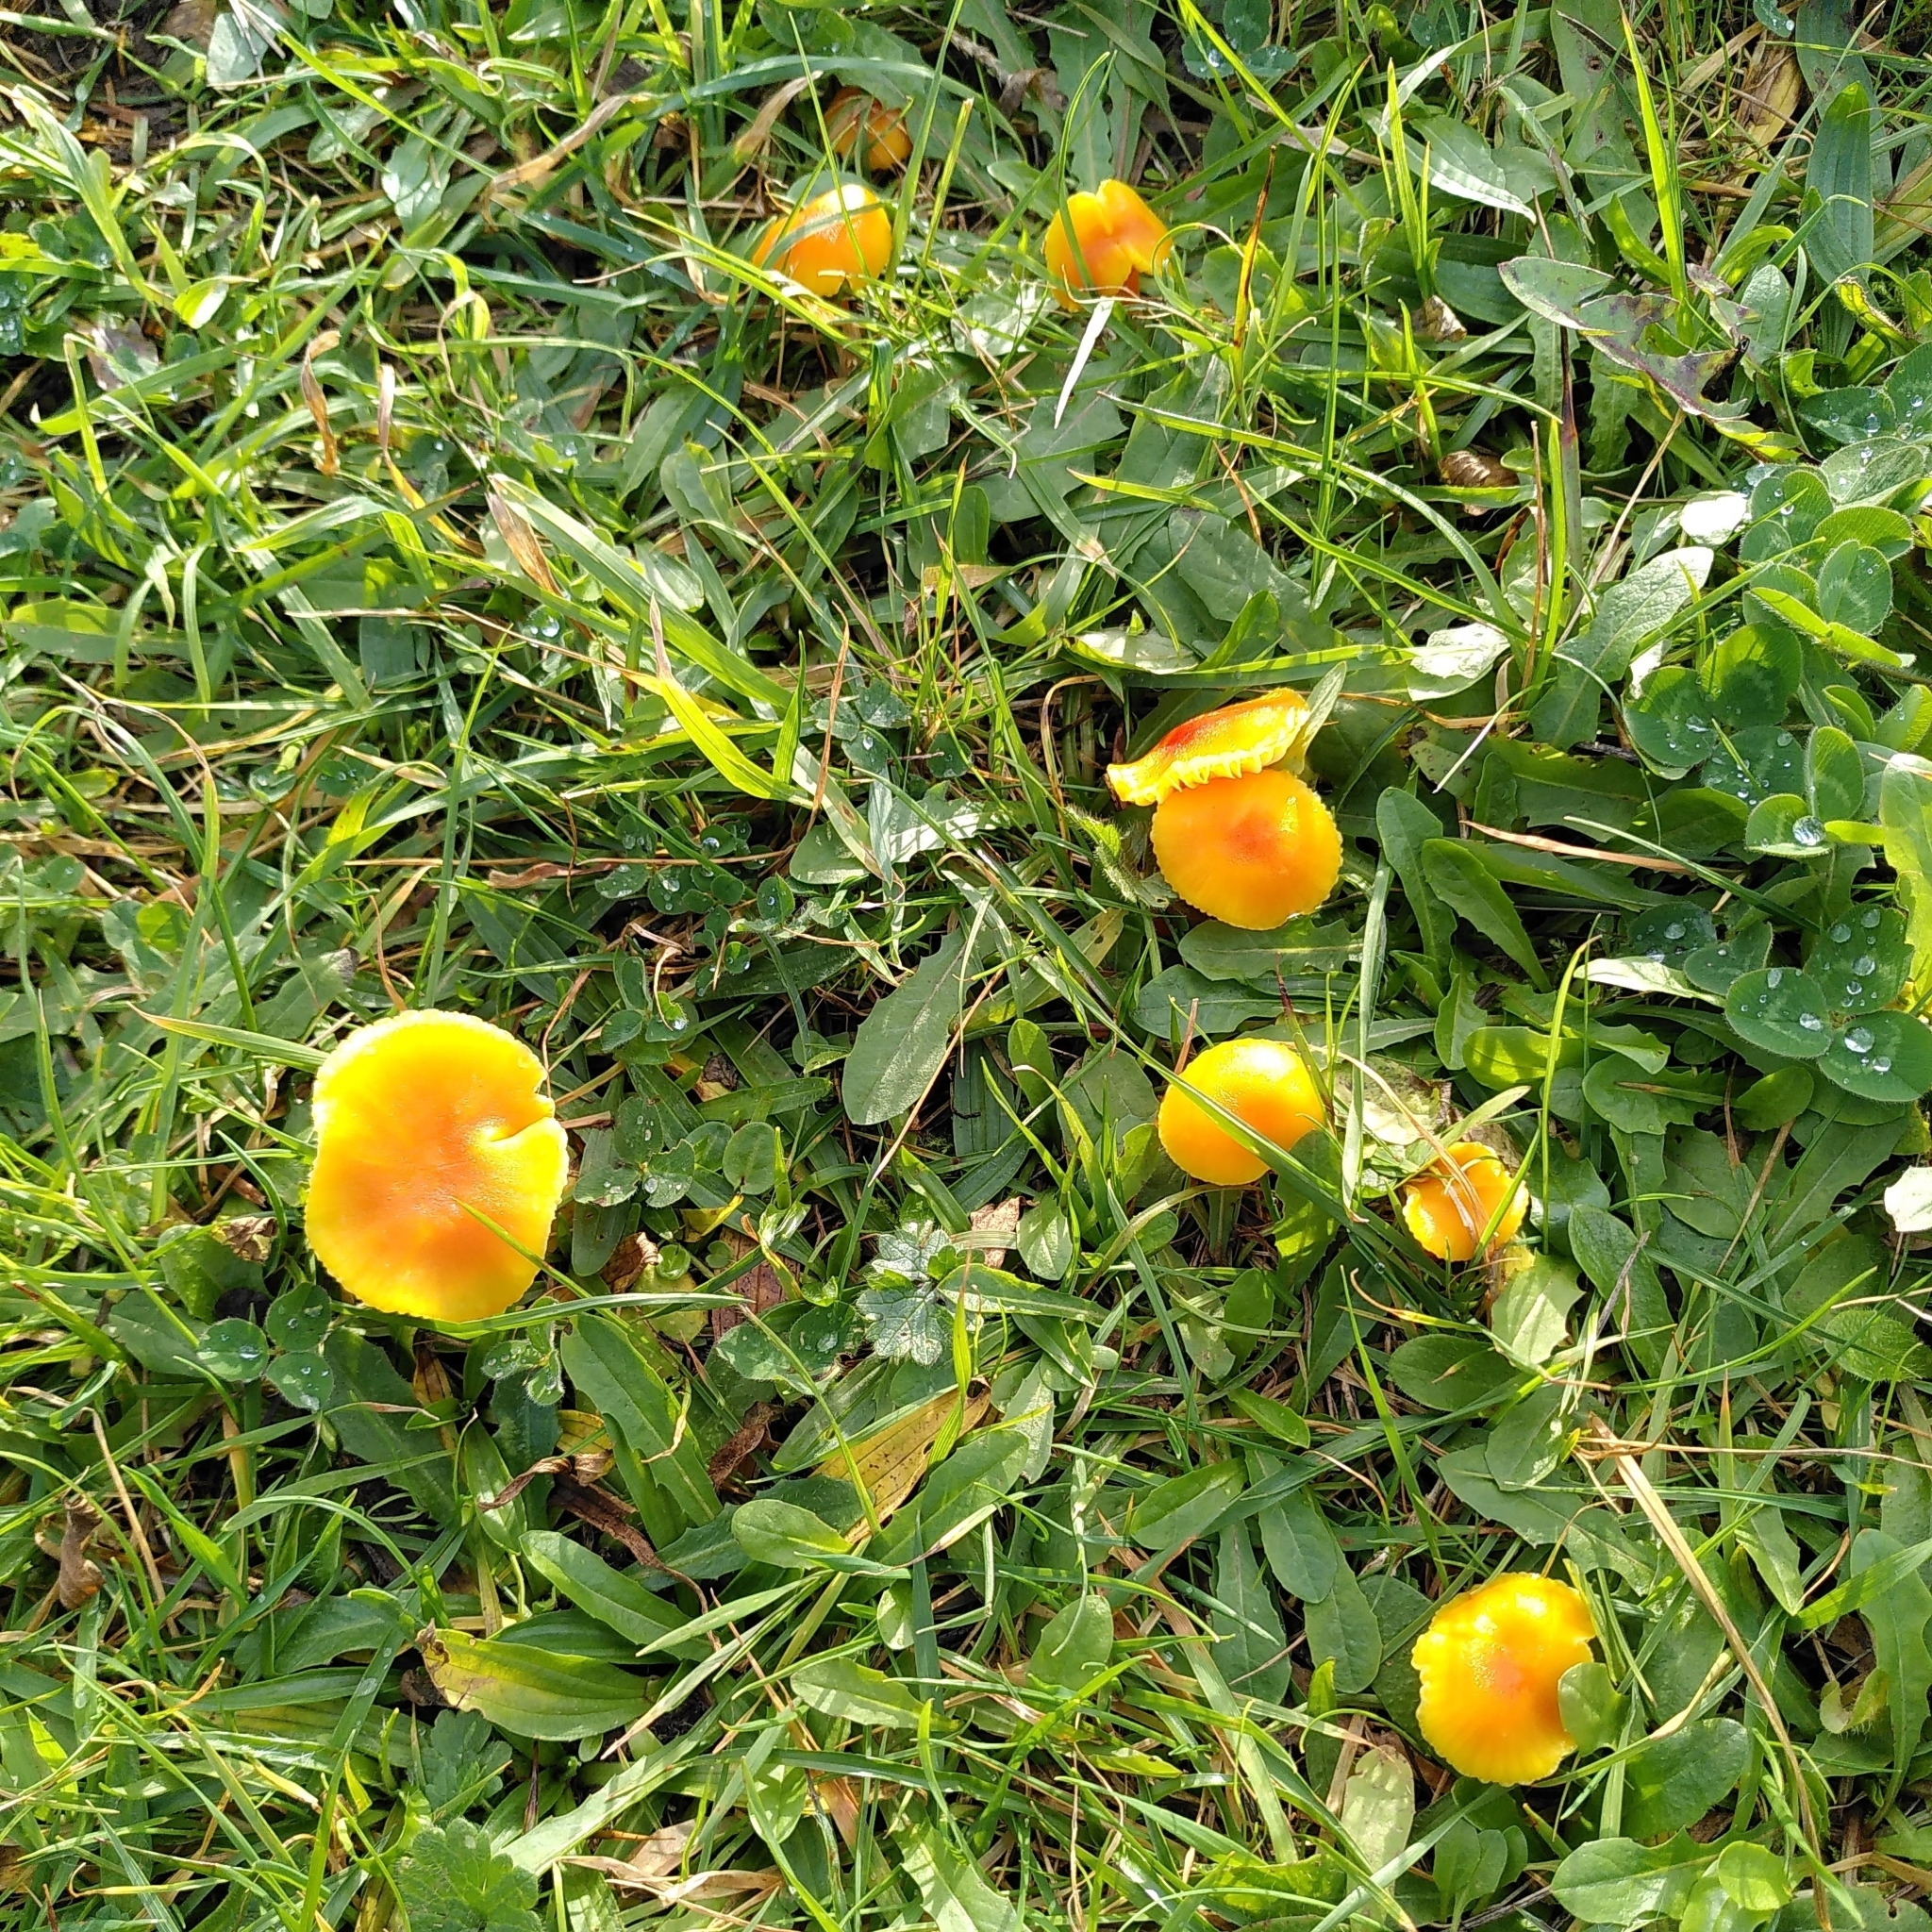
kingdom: Fungi
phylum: Basidiomycota
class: Agaricomycetes
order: Agaricales
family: Hygrophoraceae
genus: Hygrocybe
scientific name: Hygrocybe ceracea
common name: Butter waxcap
